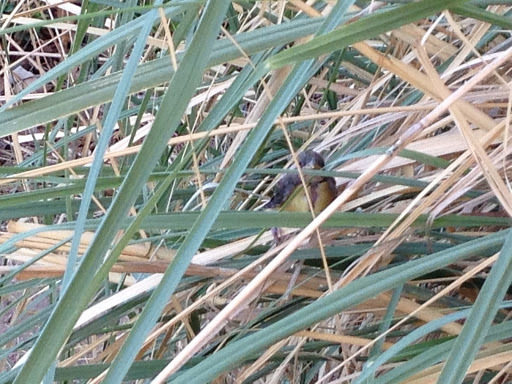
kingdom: Animalia
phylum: Chordata
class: Aves
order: Passeriformes
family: Fringillidae
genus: Spinus
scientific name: Spinus psaltria
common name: Lesser goldfinch
